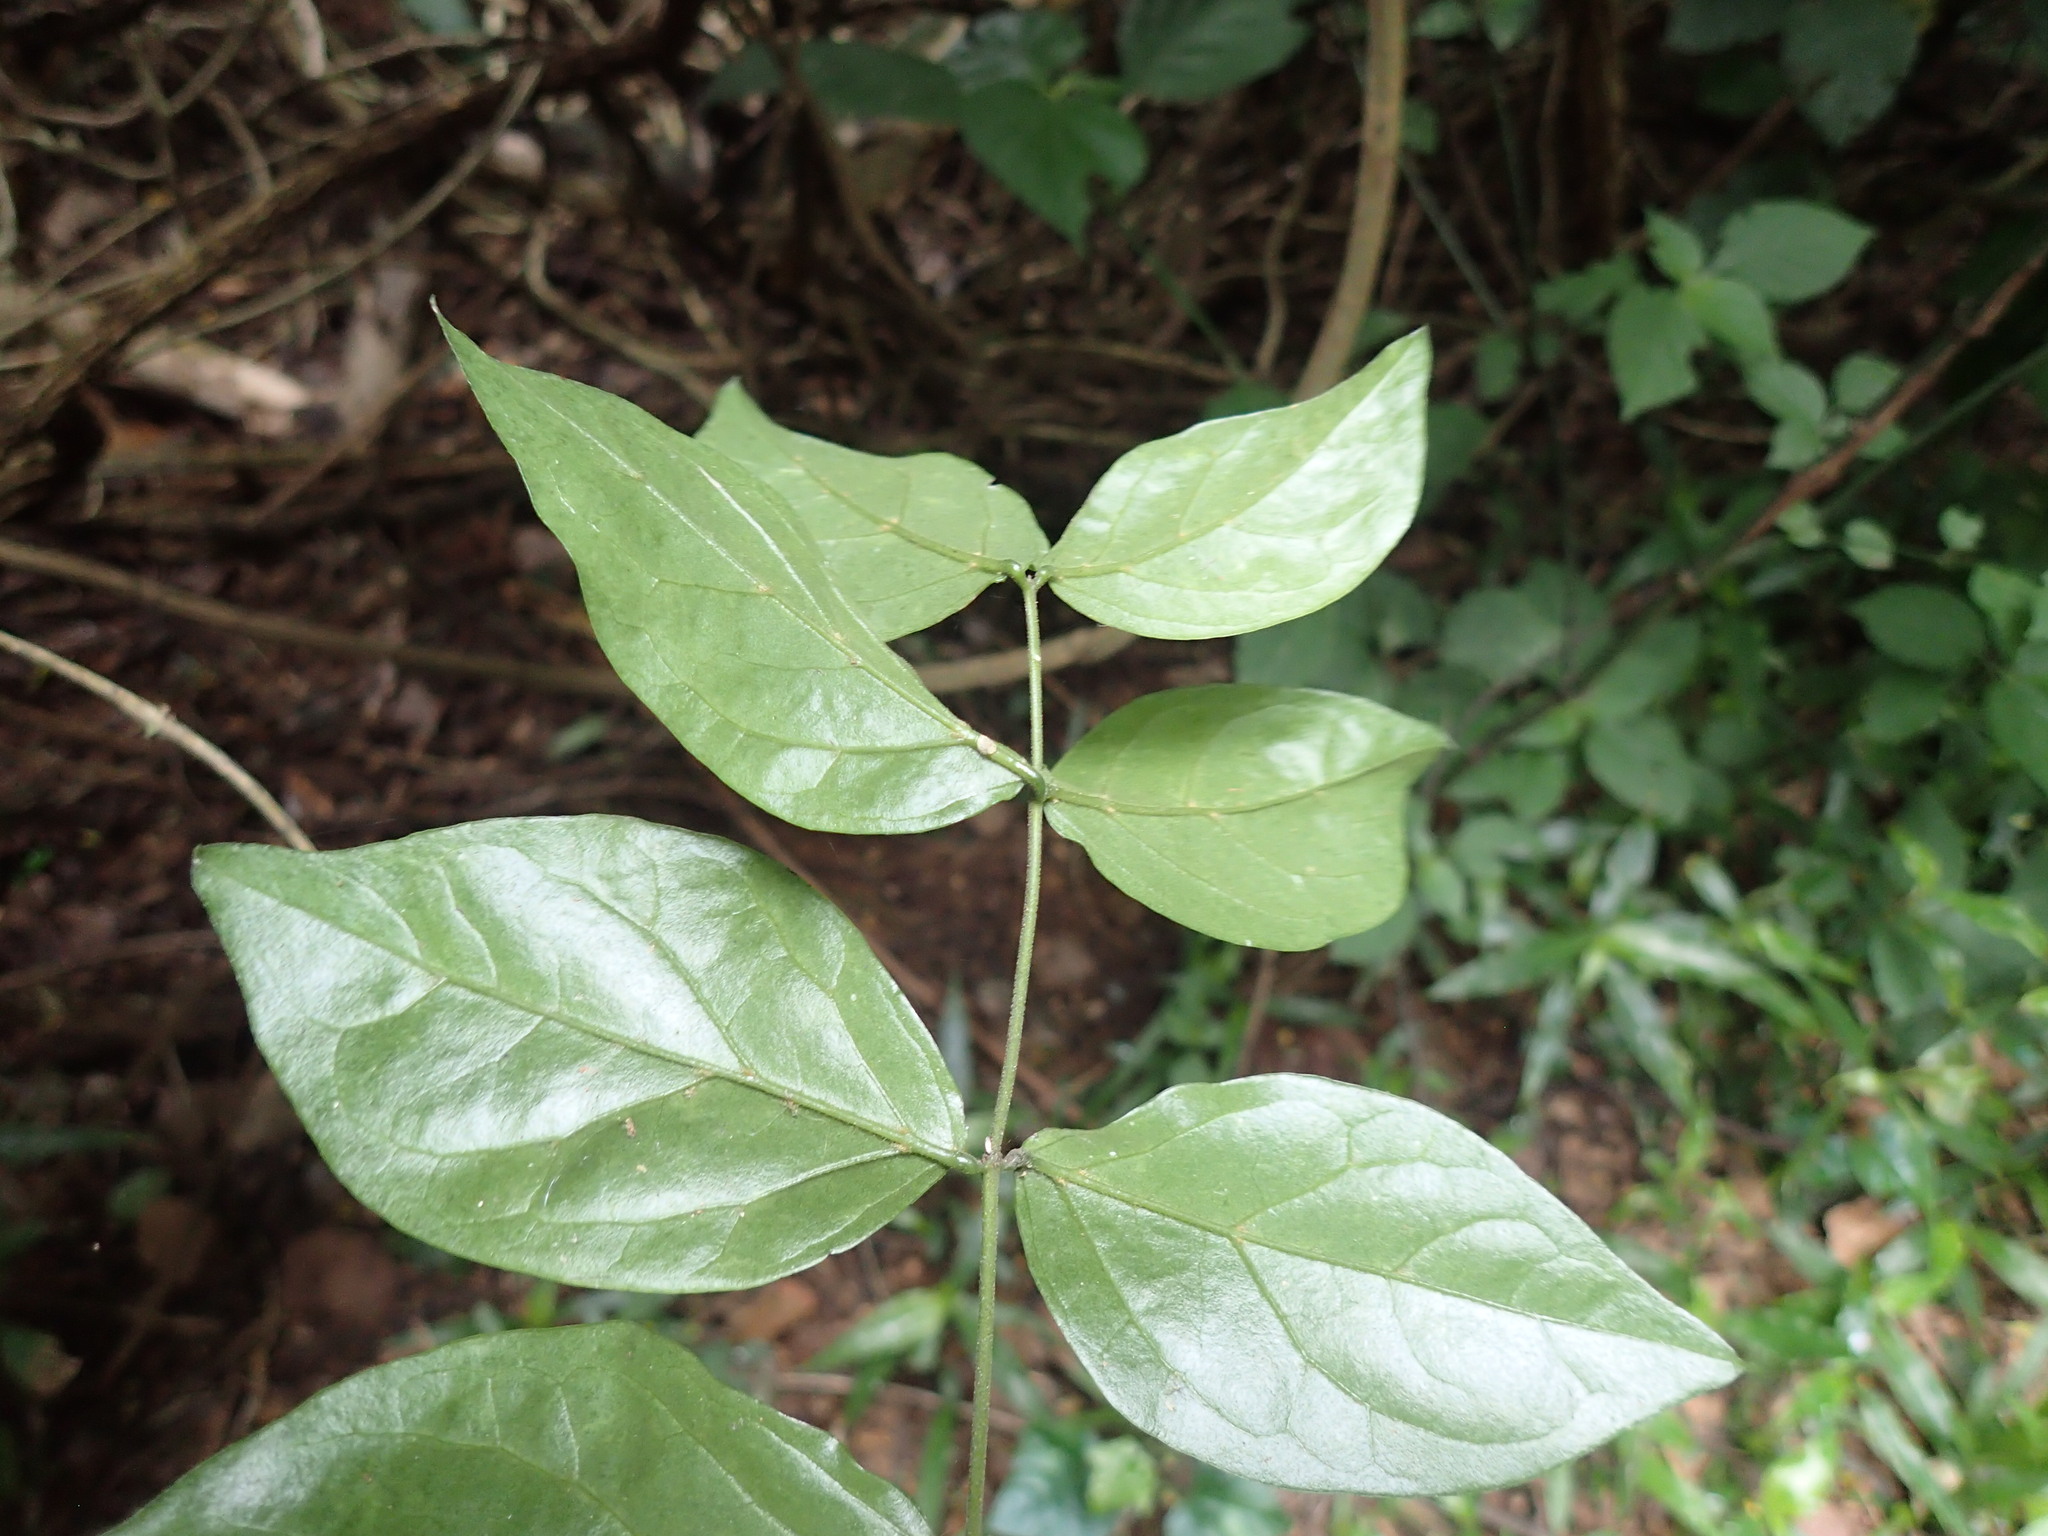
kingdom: Plantae
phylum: Tracheophyta
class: Magnoliopsida
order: Lamiales
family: Oleaceae
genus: Jasminum
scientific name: Jasminum streptopus
